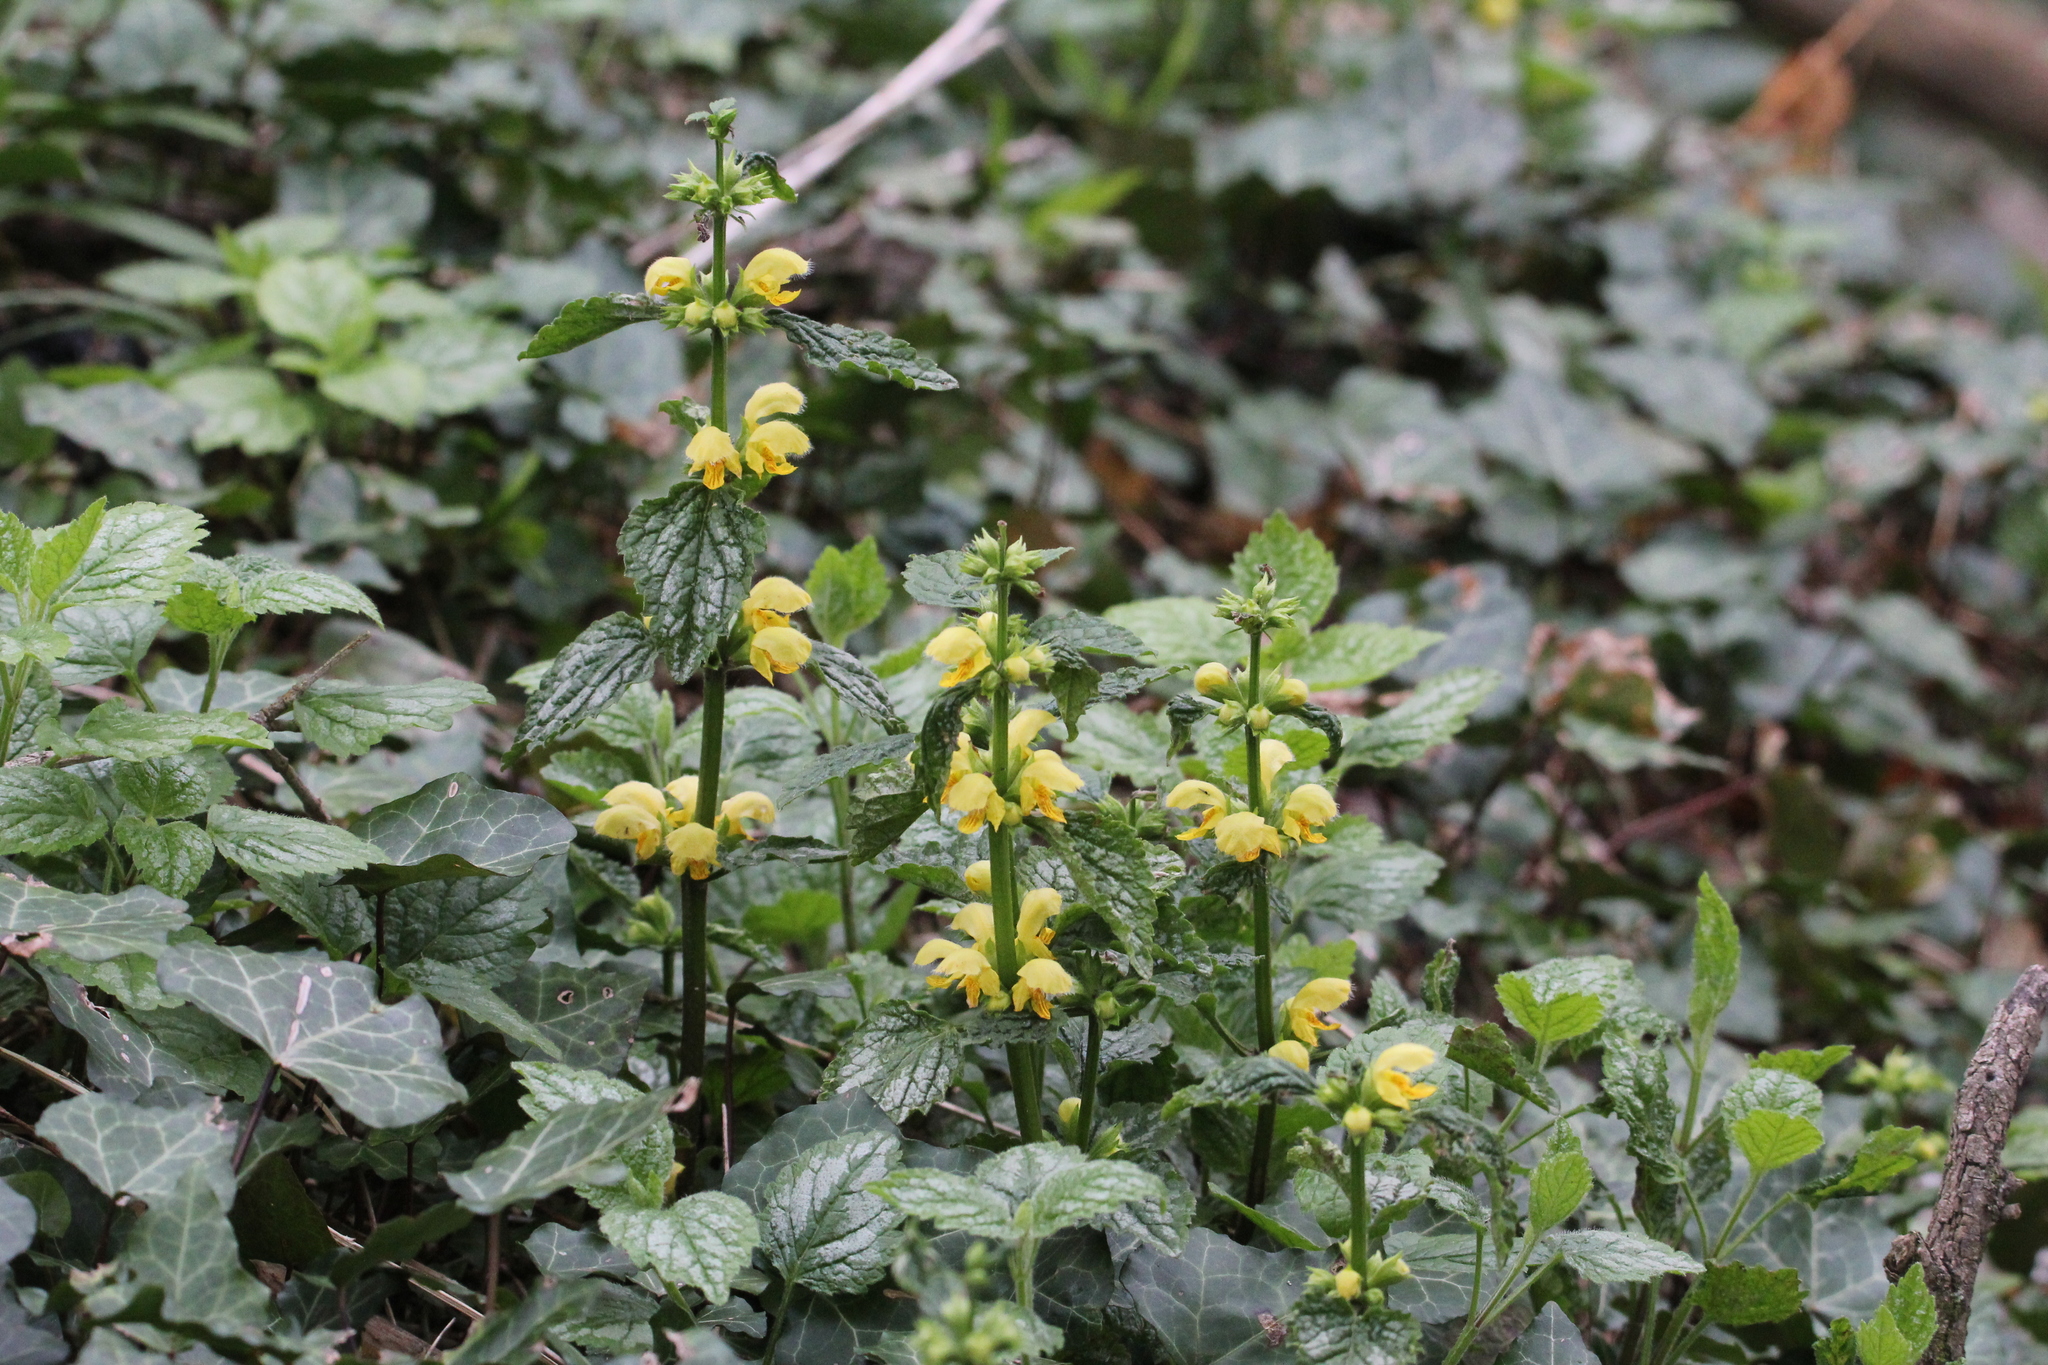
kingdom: Plantae
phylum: Tracheophyta
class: Magnoliopsida
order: Lamiales
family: Lamiaceae
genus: Lamium
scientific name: Lamium galeobdolon
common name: Yellow archangel
